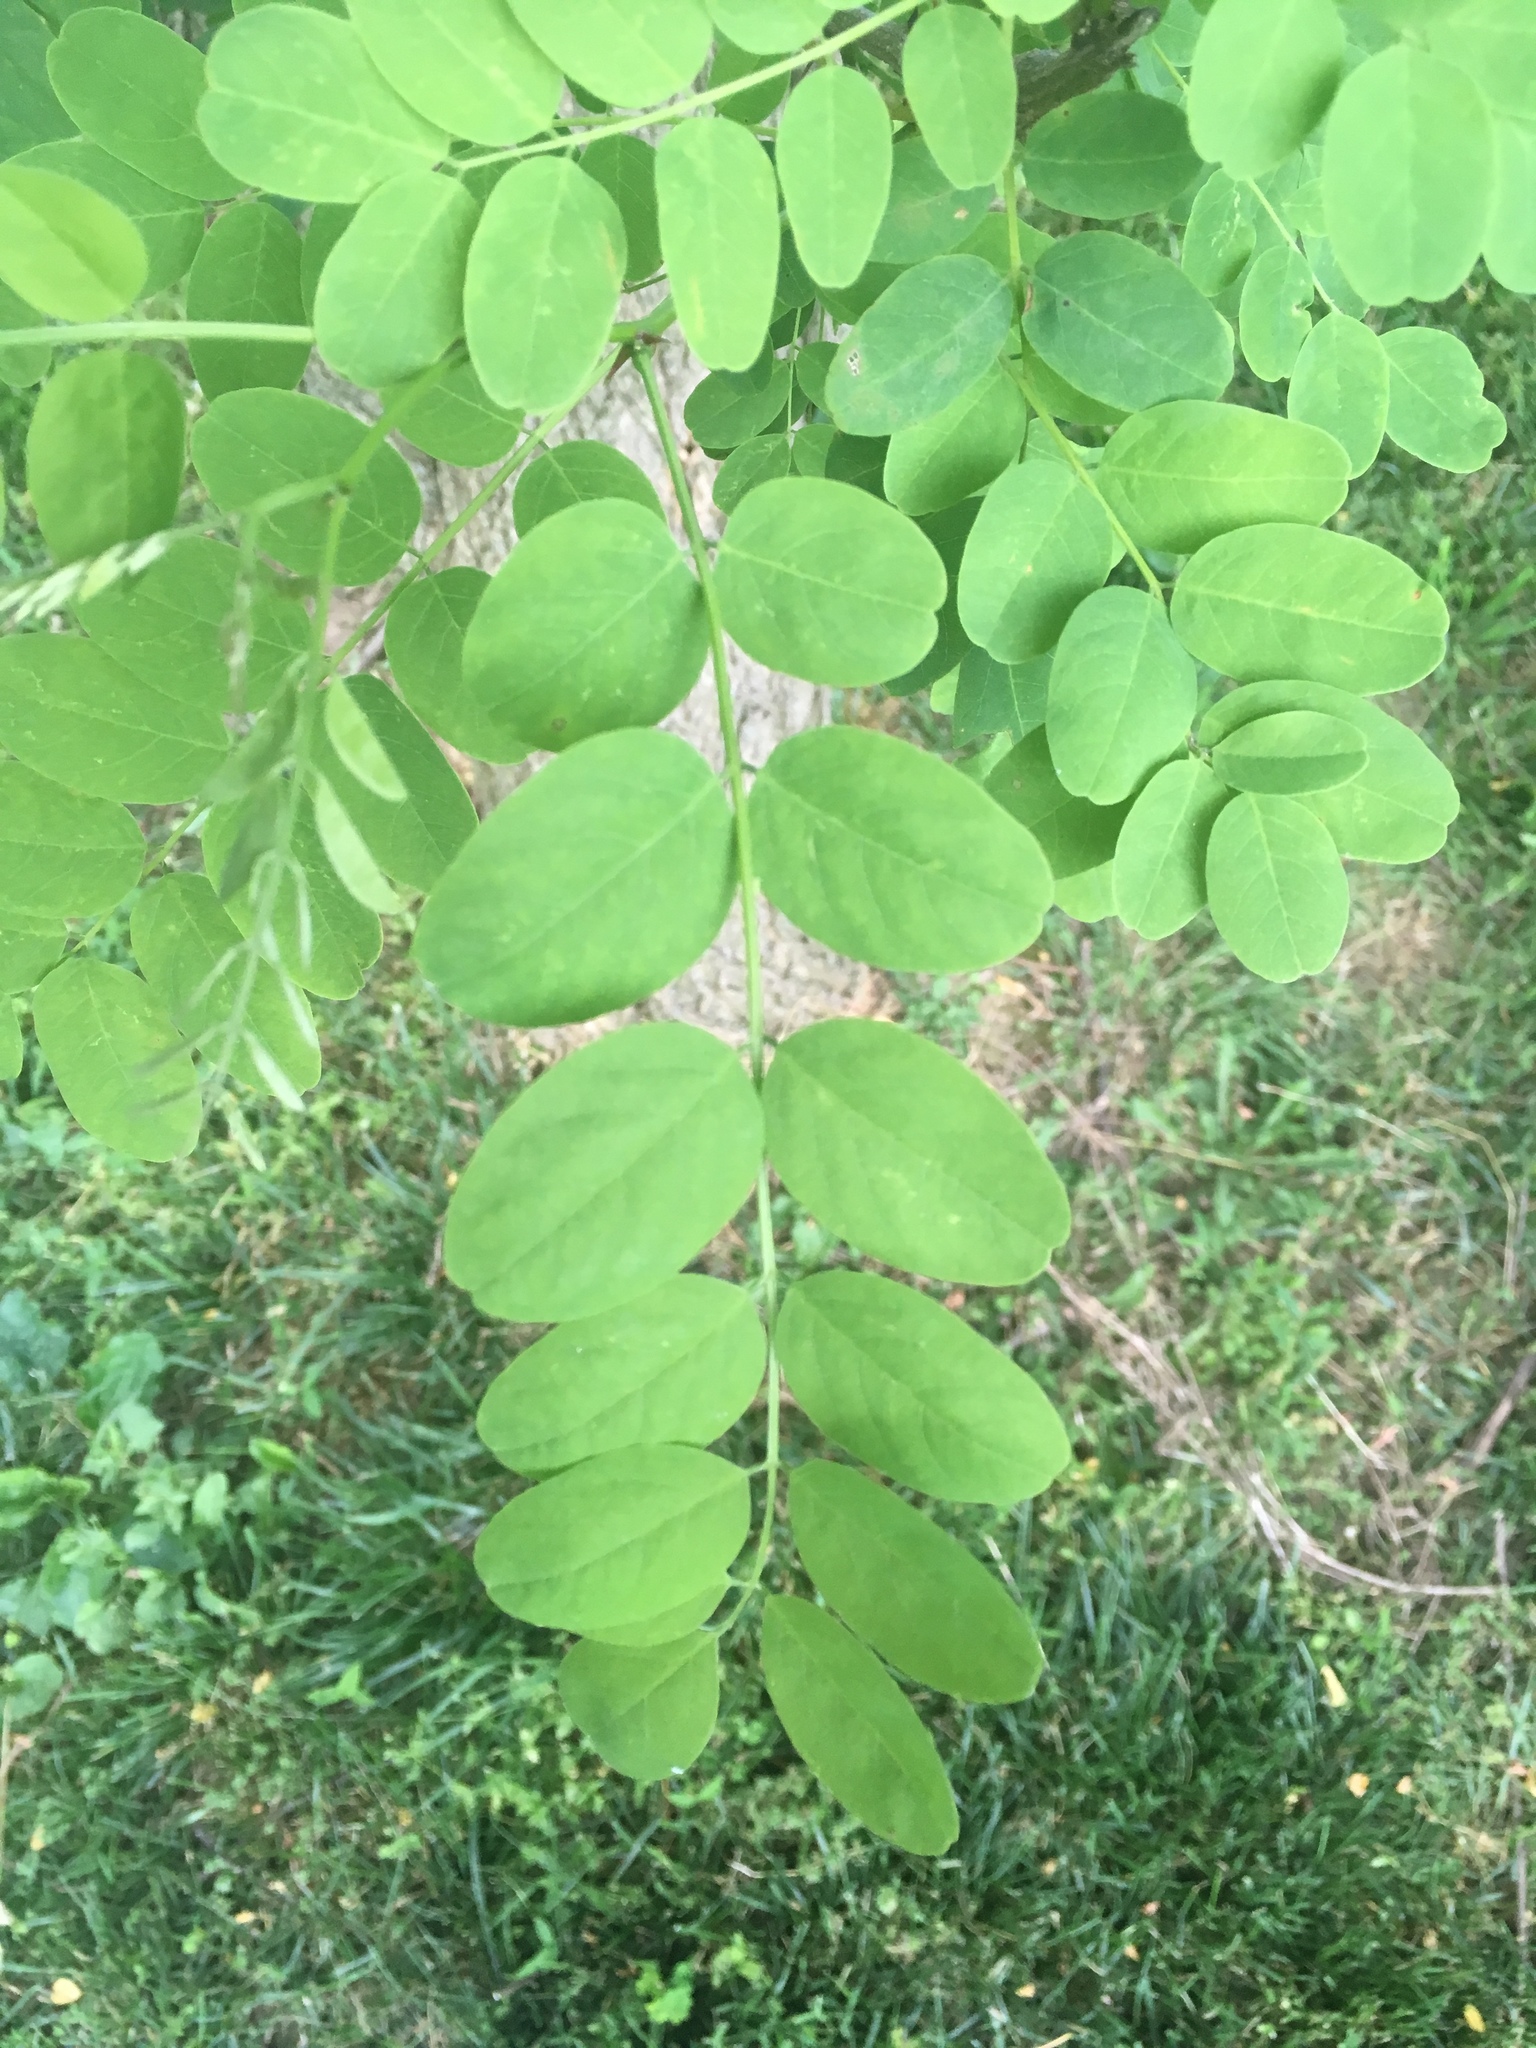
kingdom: Plantae
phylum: Tracheophyta
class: Magnoliopsida
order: Fabales
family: Fabaceae
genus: Robinia
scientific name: Robinia pseudoacacia
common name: Black locust
